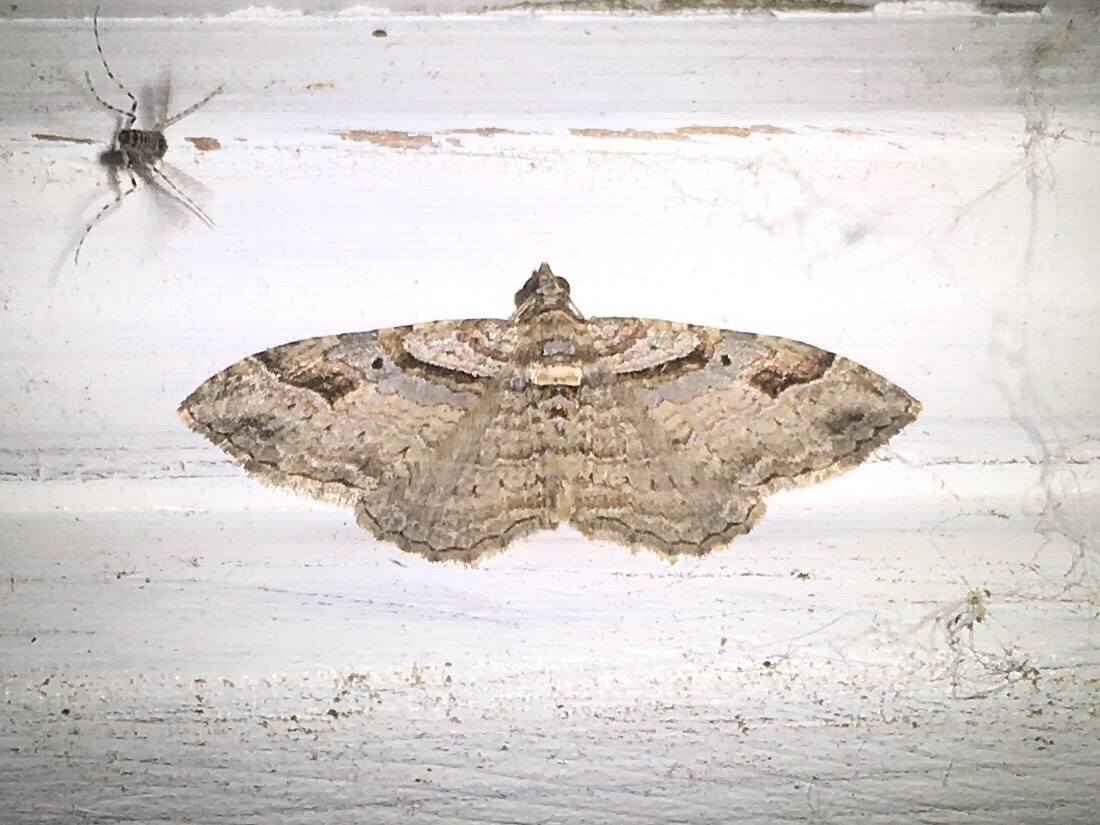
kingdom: Animalia
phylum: Arthropoda
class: Insecta
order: Lepidoptera
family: Geometridae
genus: Costaconvexa
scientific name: Costaconvexa centrostrigaria
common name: Bent-line carpet
